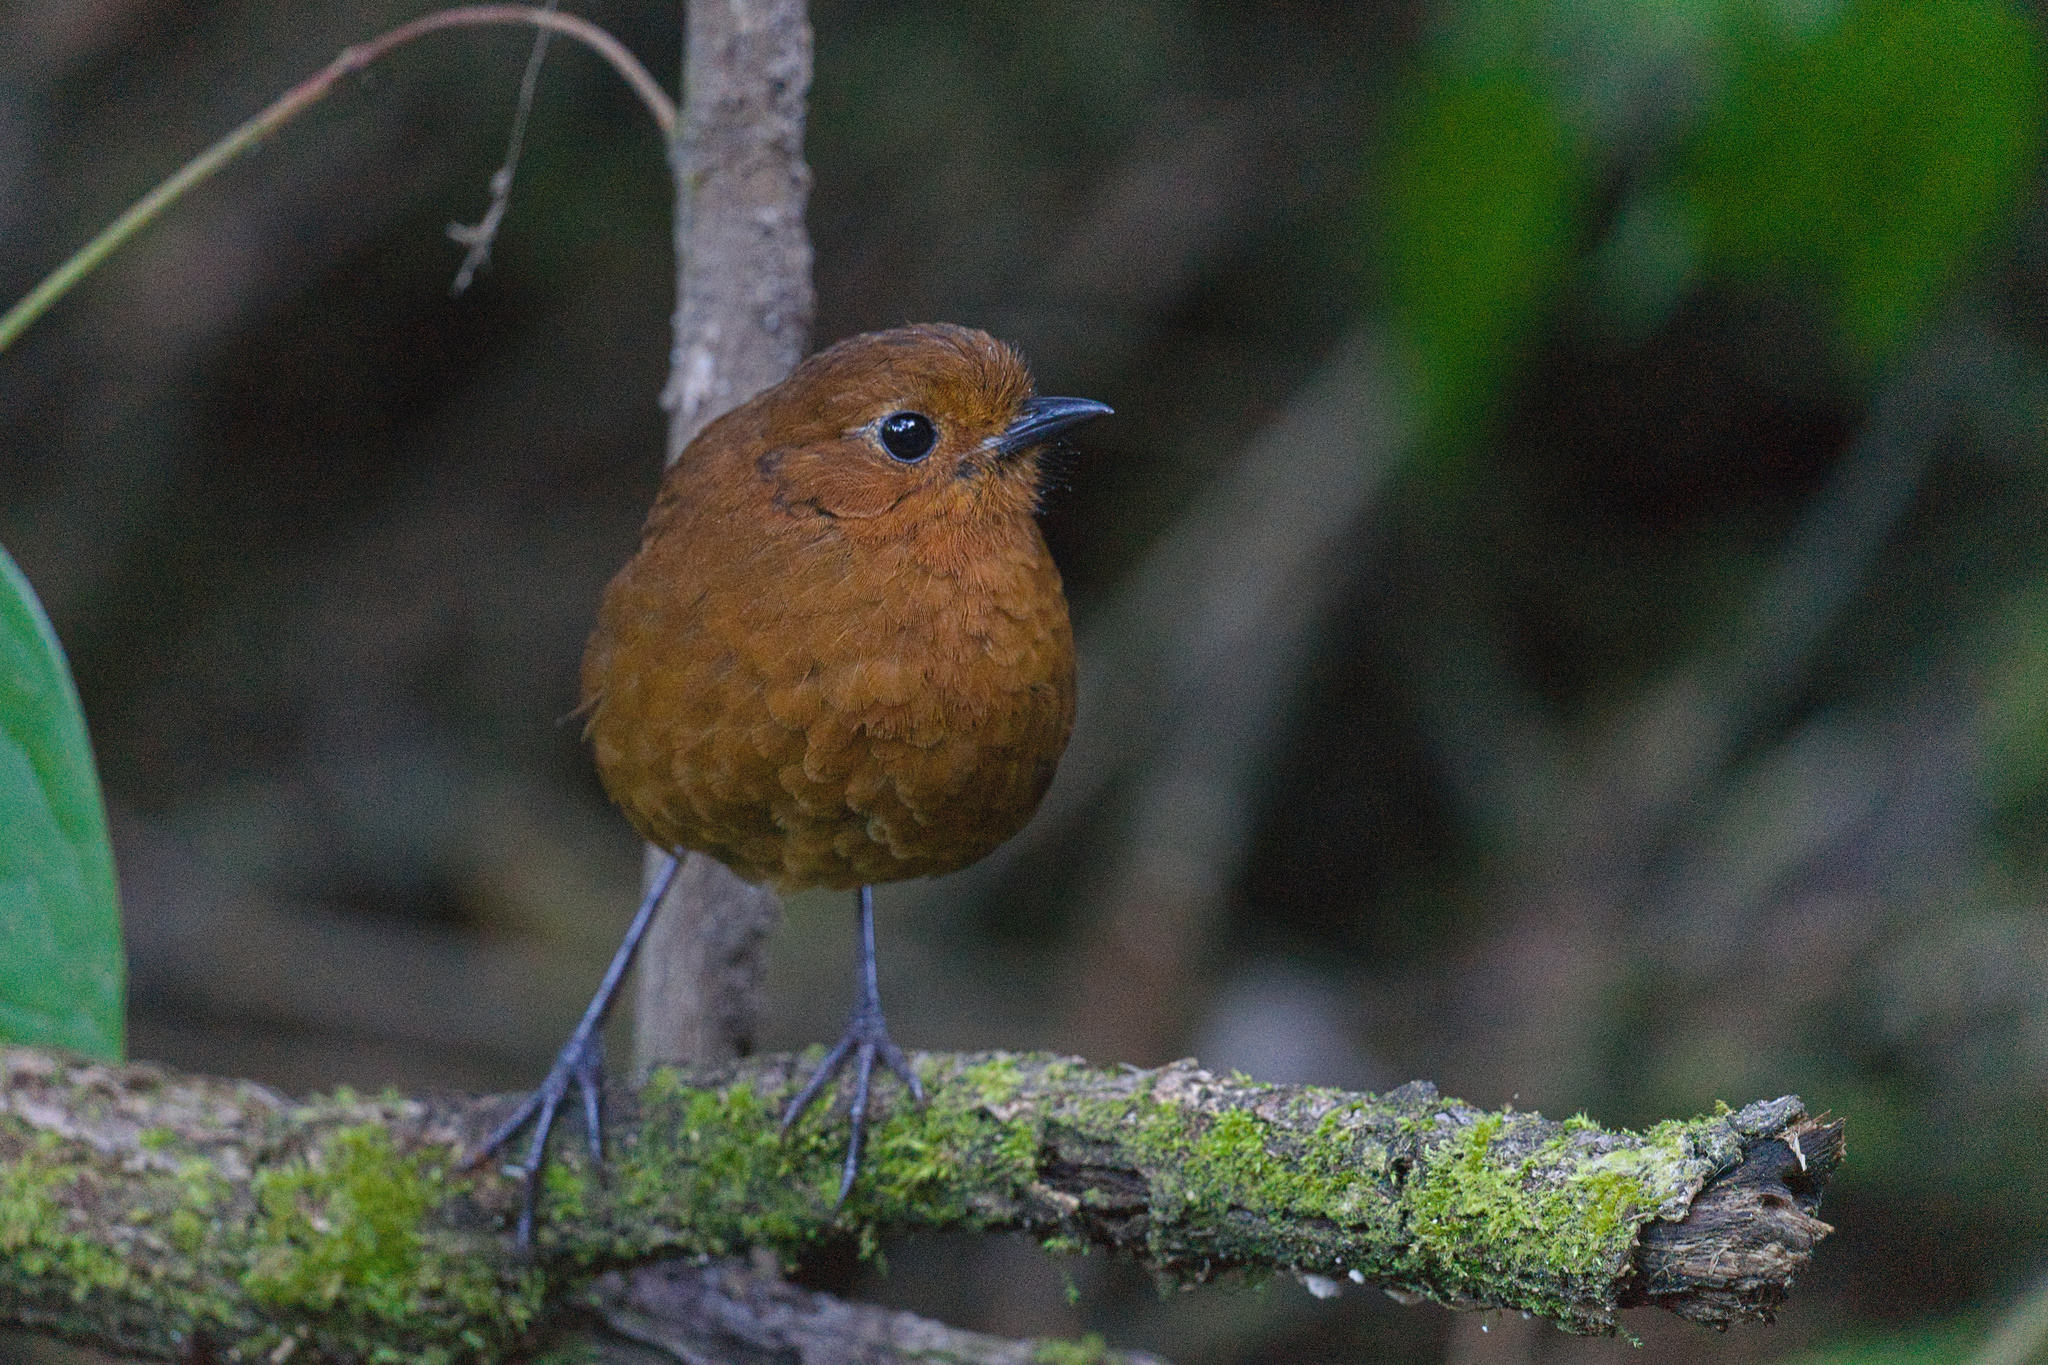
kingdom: Animalia
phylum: Chordata
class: Aves
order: Passeriformes
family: Grallariidae
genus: Grallaria
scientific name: Grallaria saturata
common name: Equatorial antpitta
